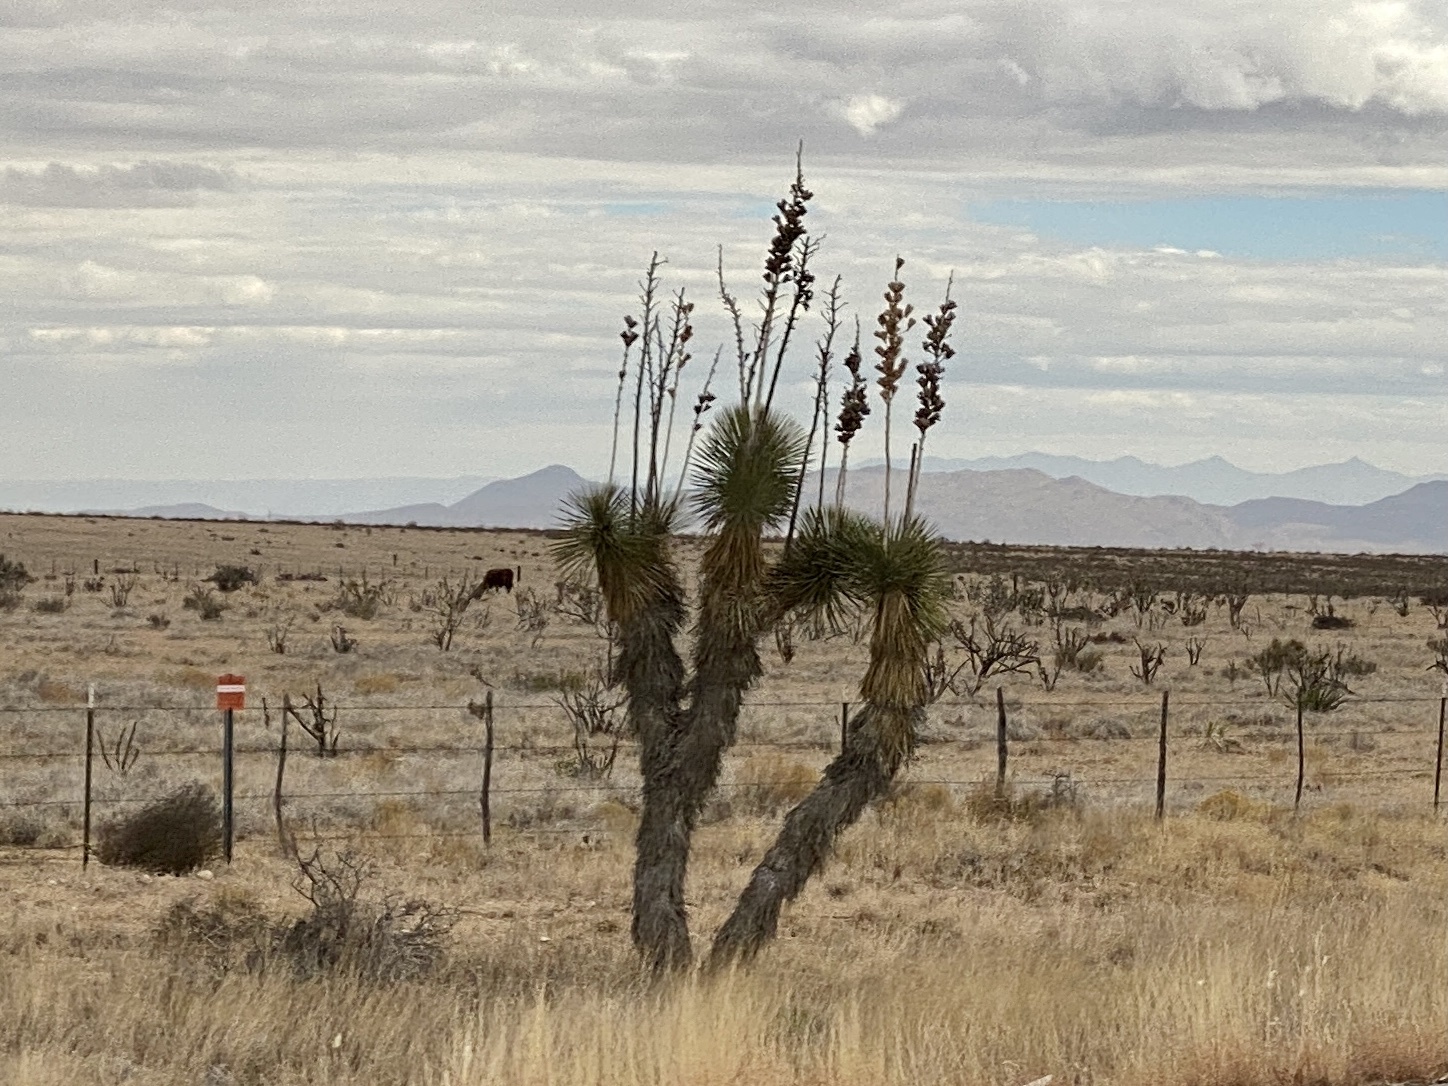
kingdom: Plantae
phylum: Tracheophyta
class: Liliopsida
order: Asparagales
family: Asparagaceae
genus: Yucca
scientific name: Yucca elata
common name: Palmella
